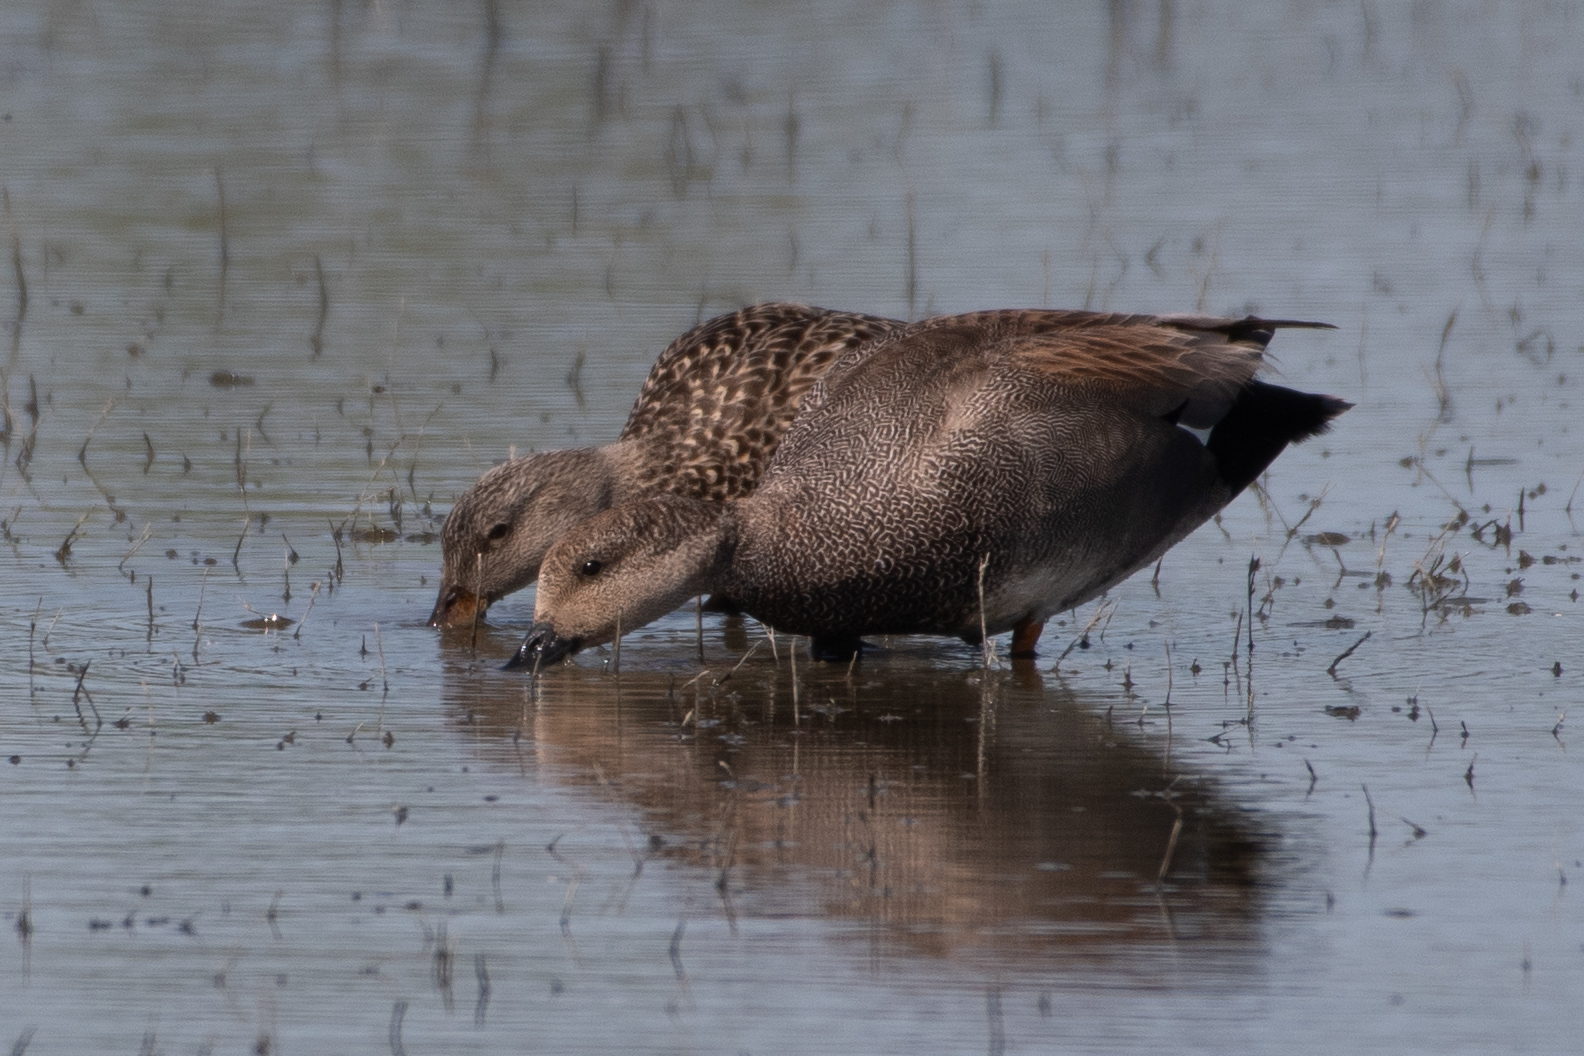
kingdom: Animalia
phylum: Chordata
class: Aves
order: Anseriformes
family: Anatidae
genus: Mareca
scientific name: Mareca strepera
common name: Gadwall
